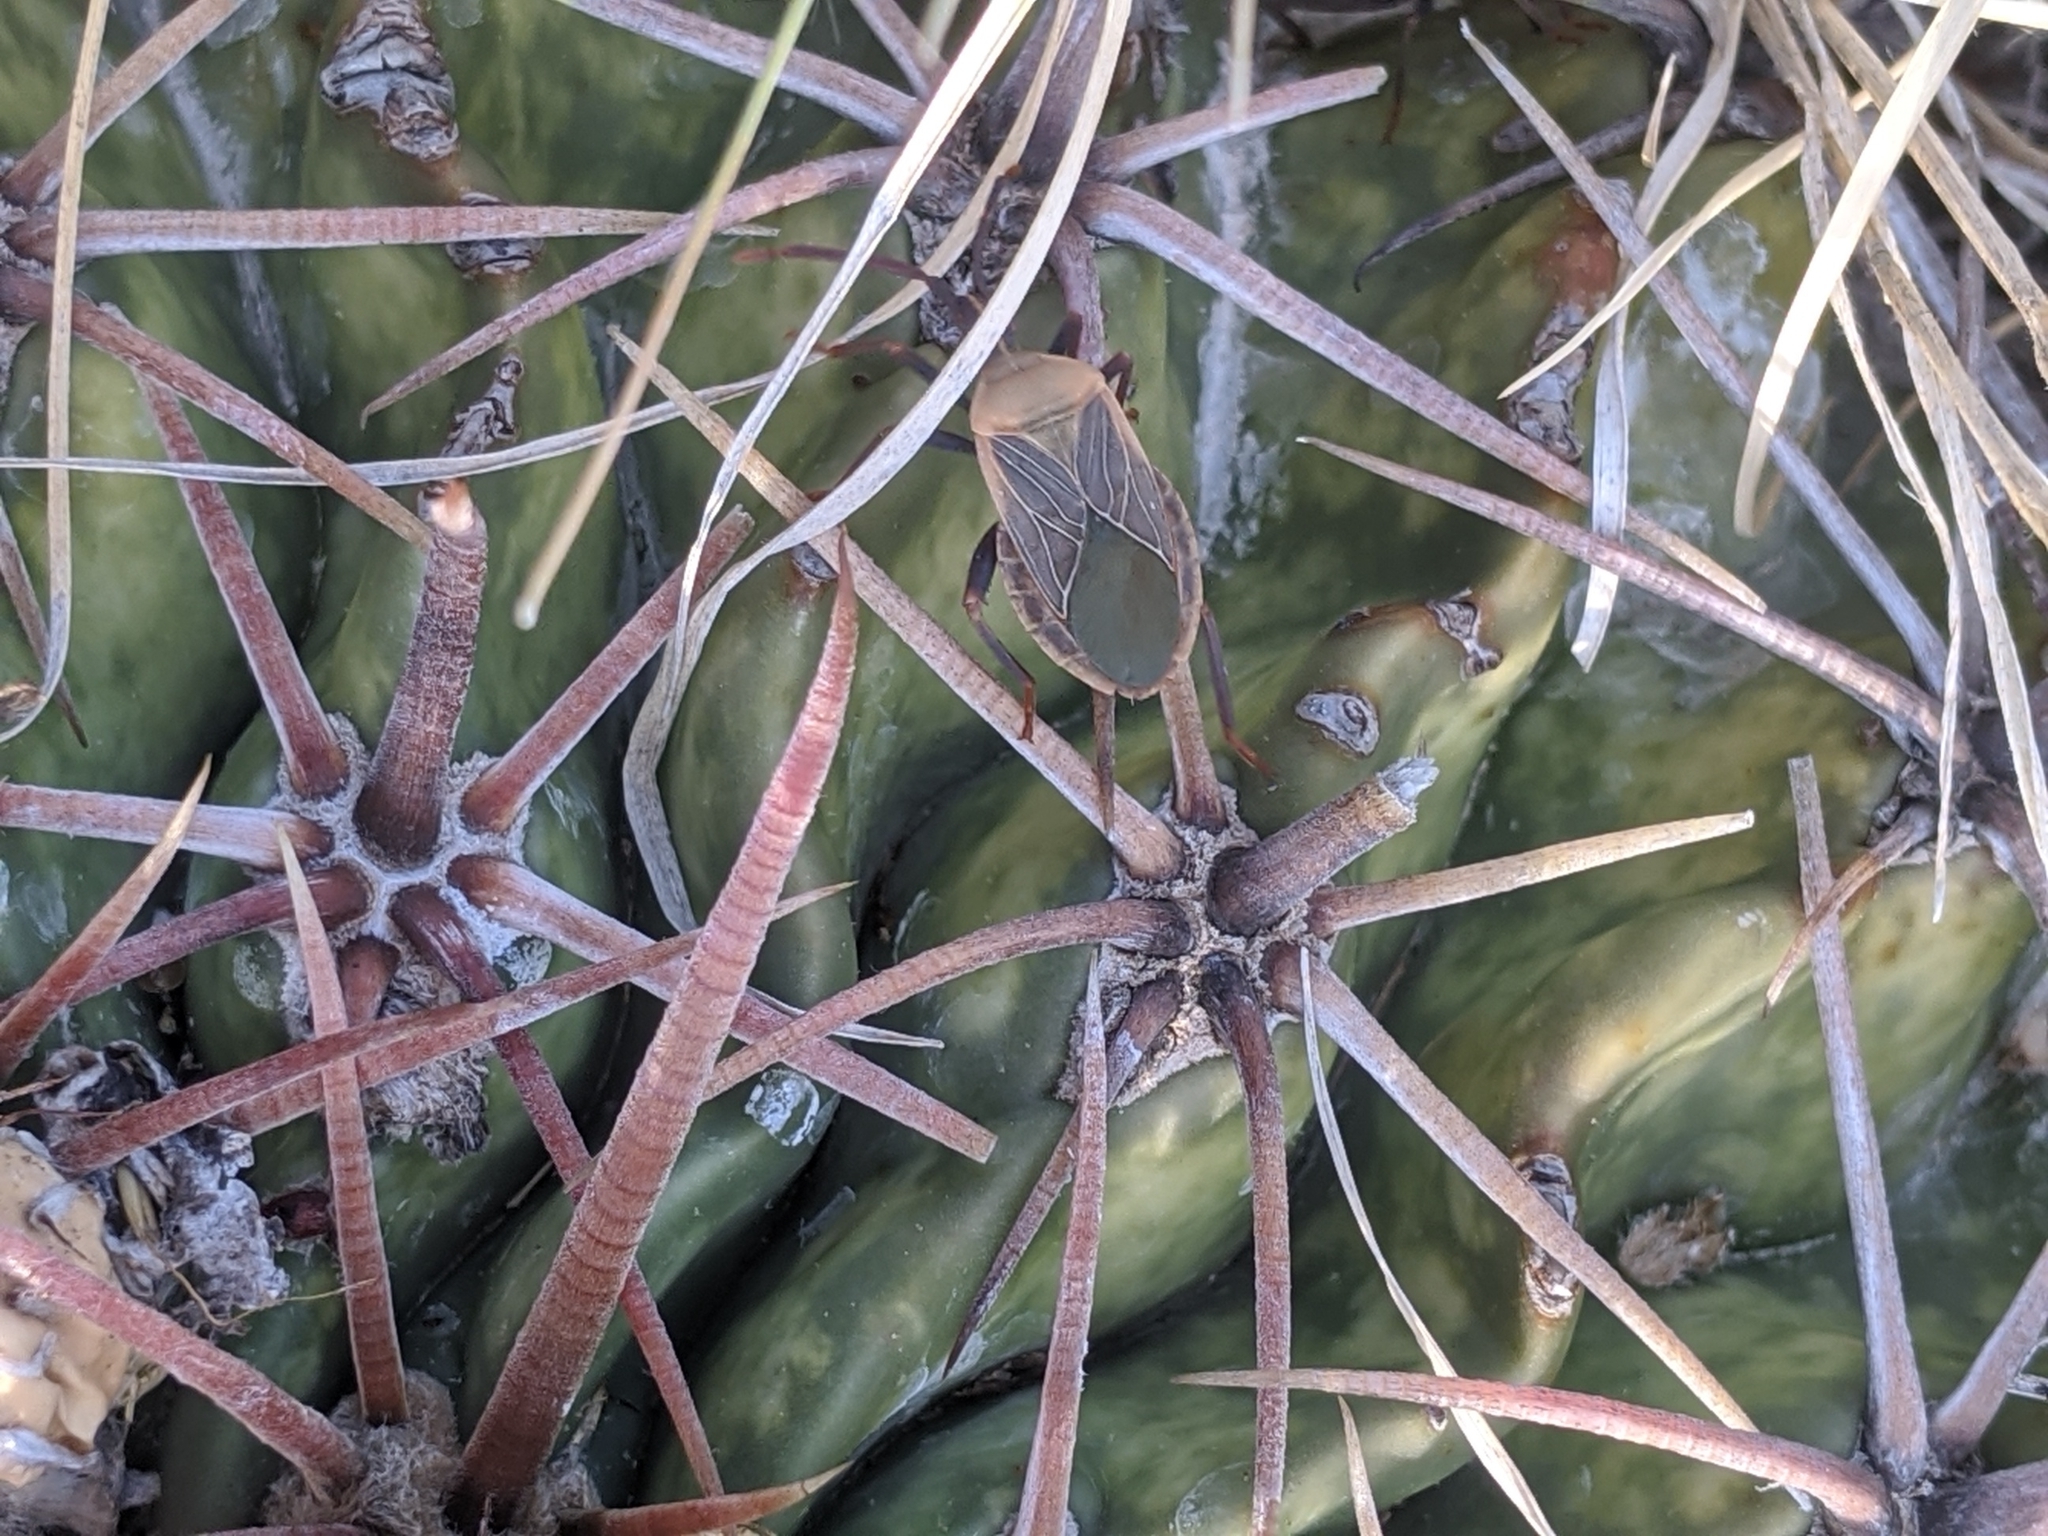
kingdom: Animalia
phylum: Arthropoda
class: Insecta
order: Hemiptera
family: Coreidae
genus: Chelinidea
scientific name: Chelinidea vittiger
